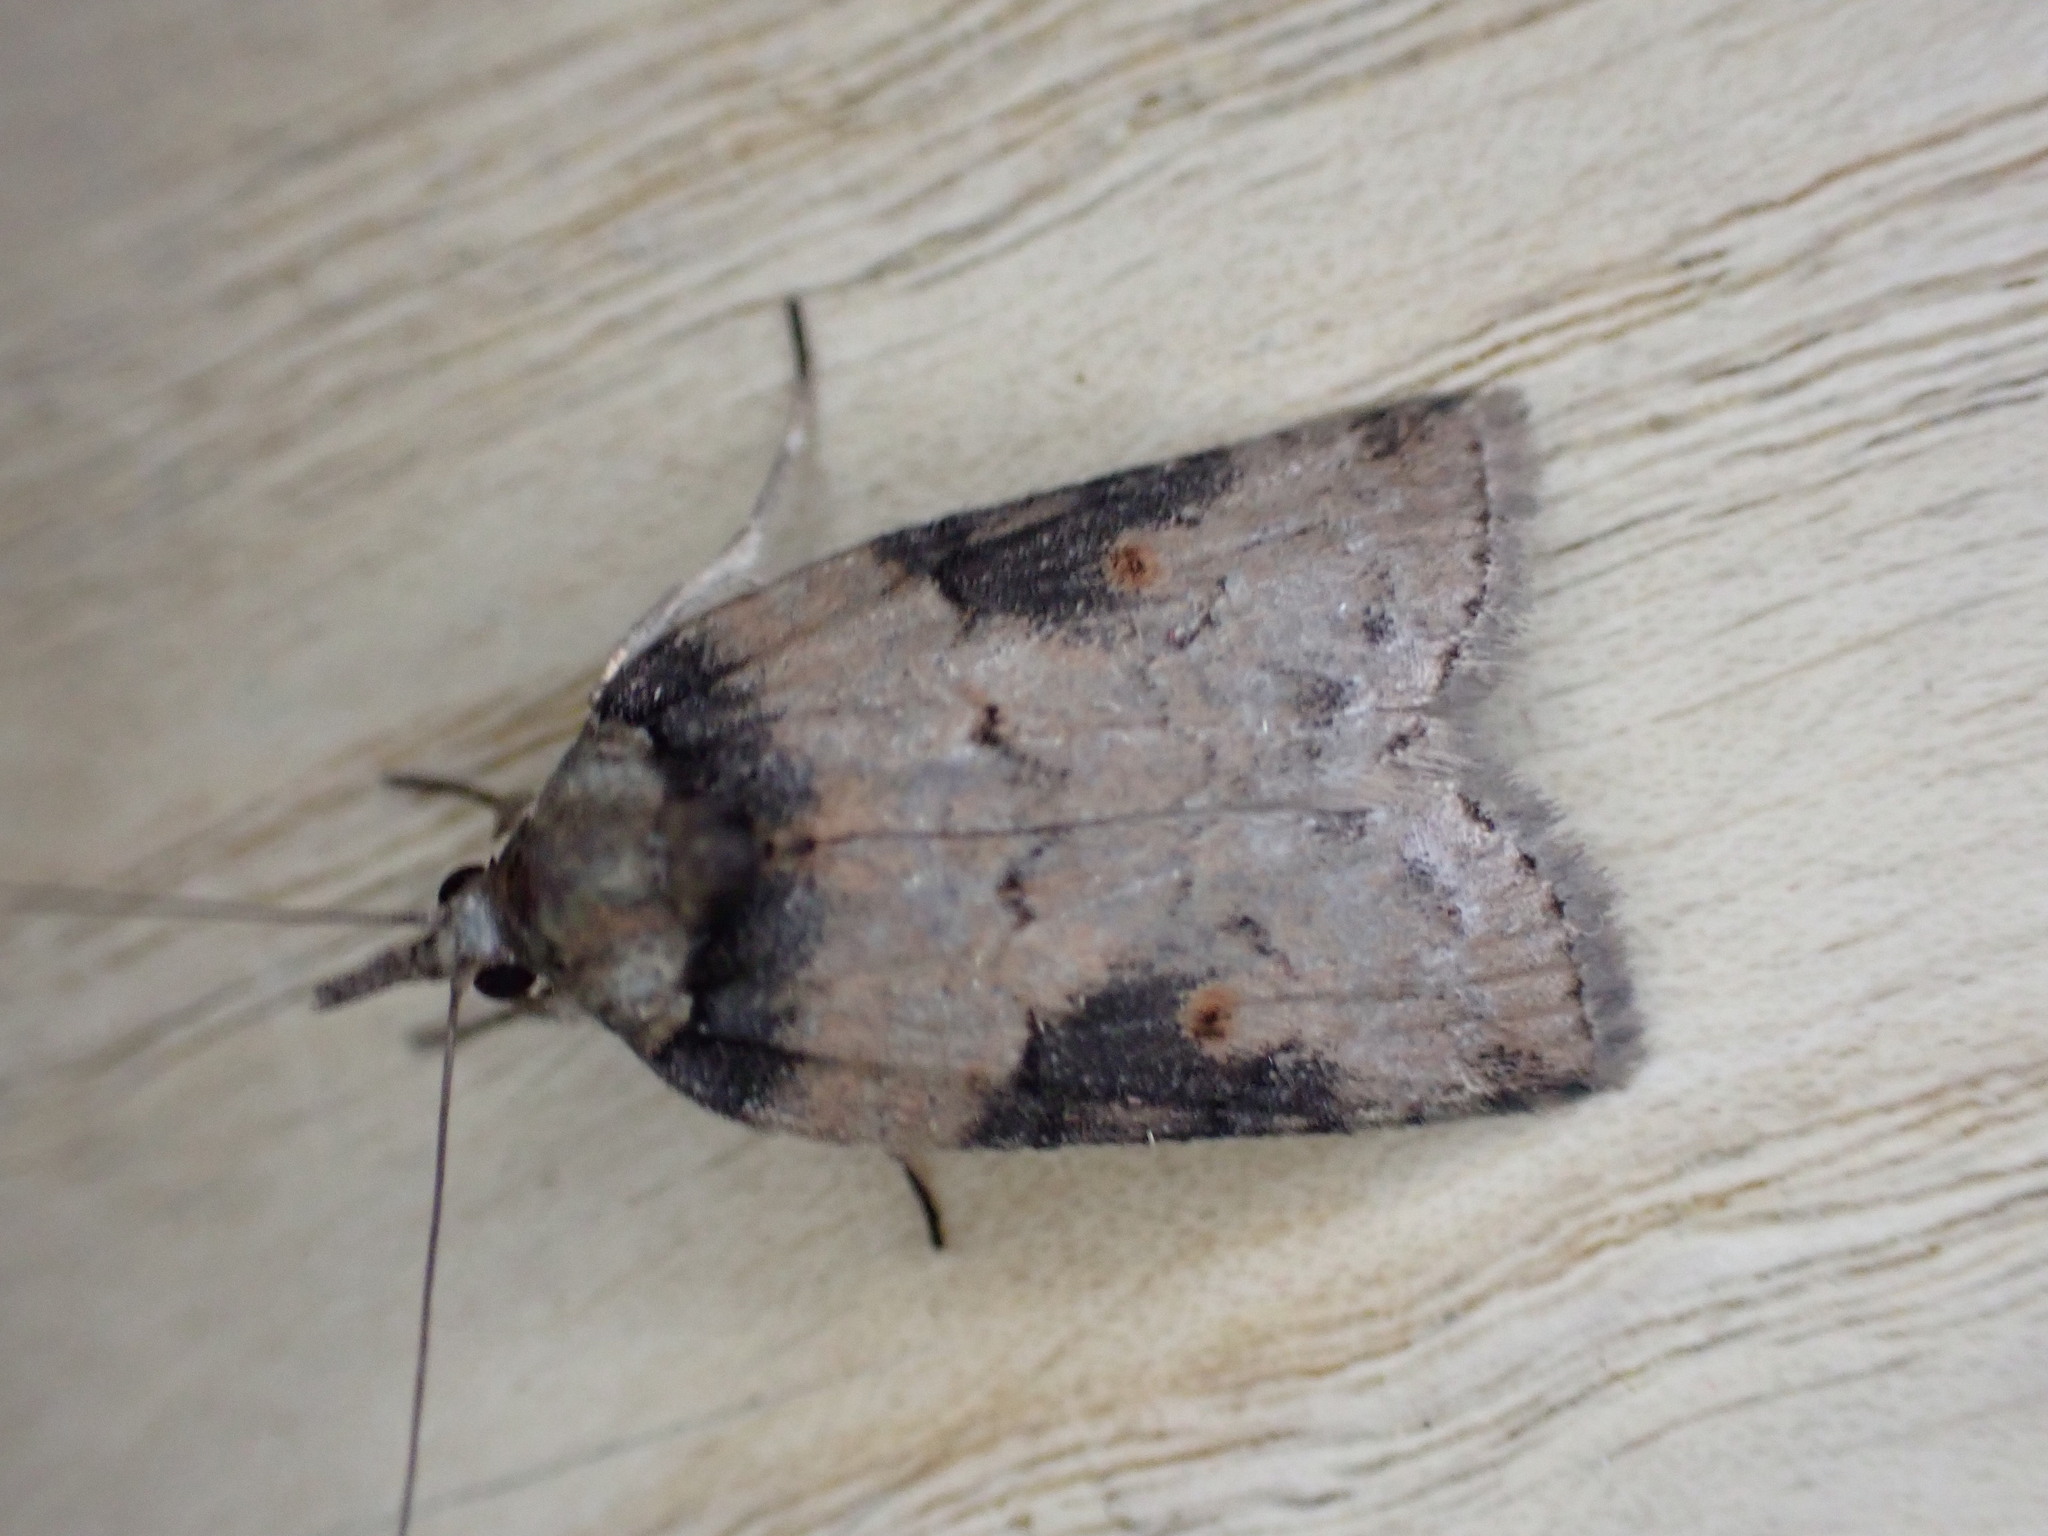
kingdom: Animalia
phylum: Arthropoda
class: Insecta
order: Lepidoptera
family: Nolidae
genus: Nycteola
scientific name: Nycteola revayana
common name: Oak nycteoline
